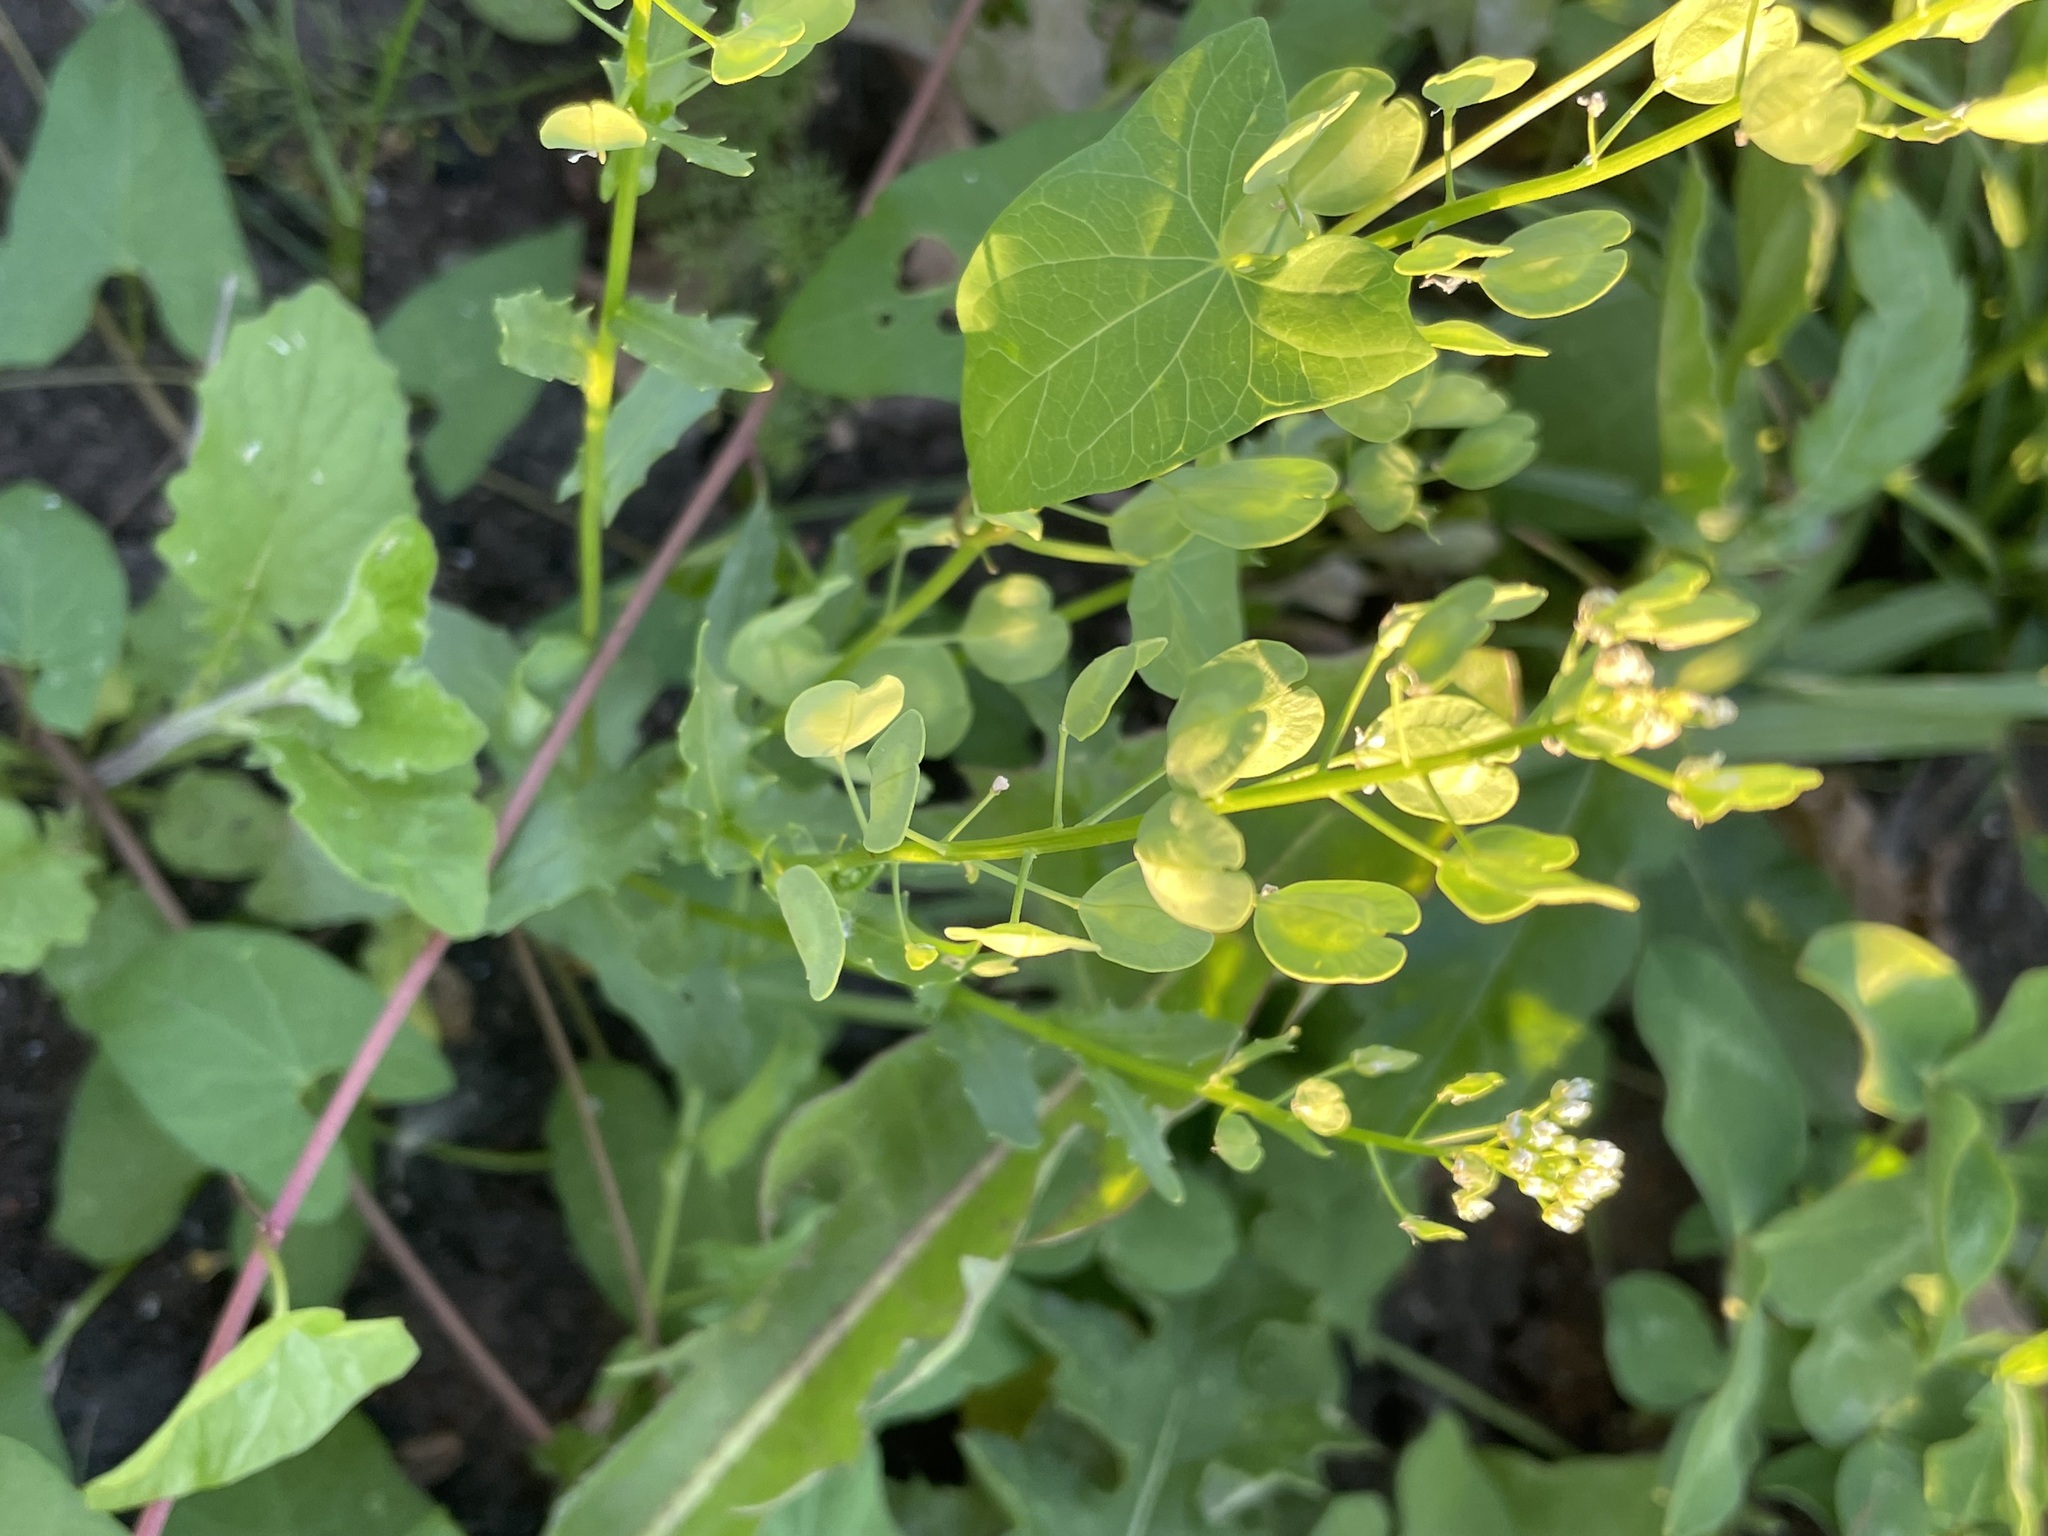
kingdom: Plantae
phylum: Tracheophyta
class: Magnoliopsida
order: Brassicales
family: Brassicaceae
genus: Thlaspi
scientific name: Thlaspi arvense
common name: Field pennycress
